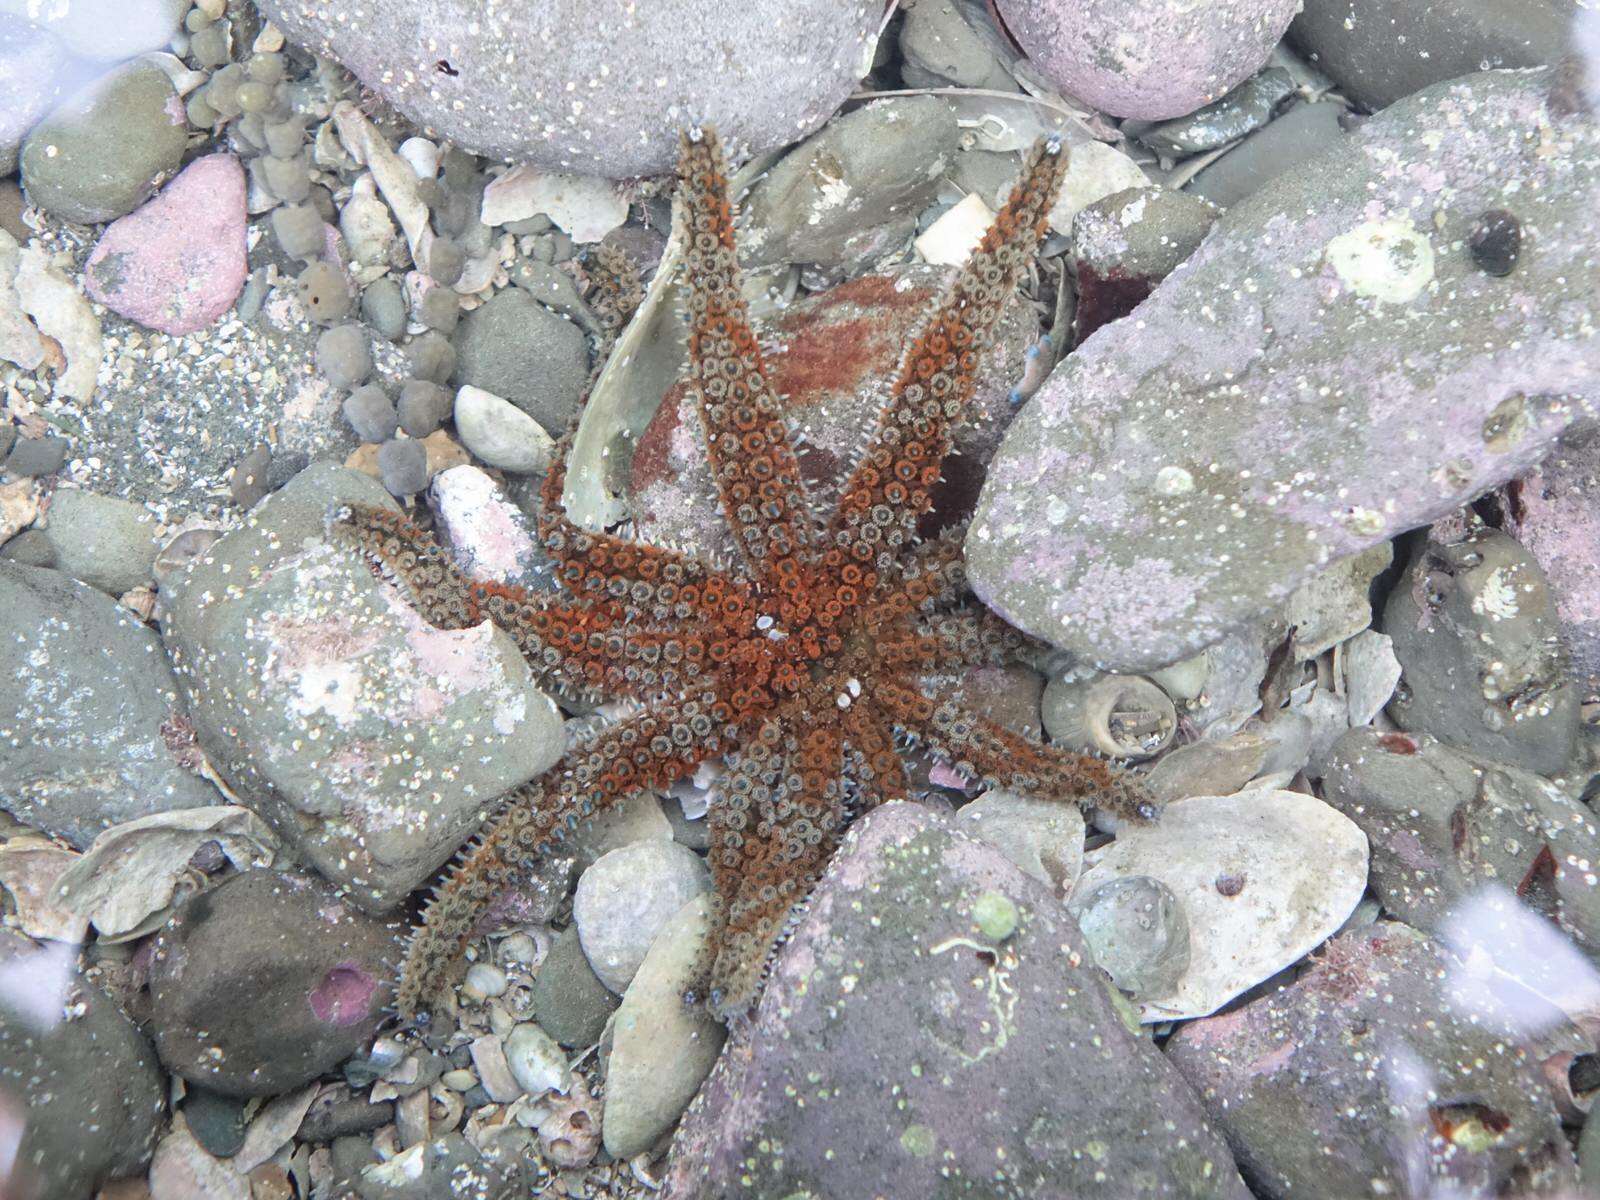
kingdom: Animalia
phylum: Echinodermata
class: Asteroidea
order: Forcipulatida
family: Asteriidae
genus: Coscinasterias
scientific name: Coscinasterias muricata
